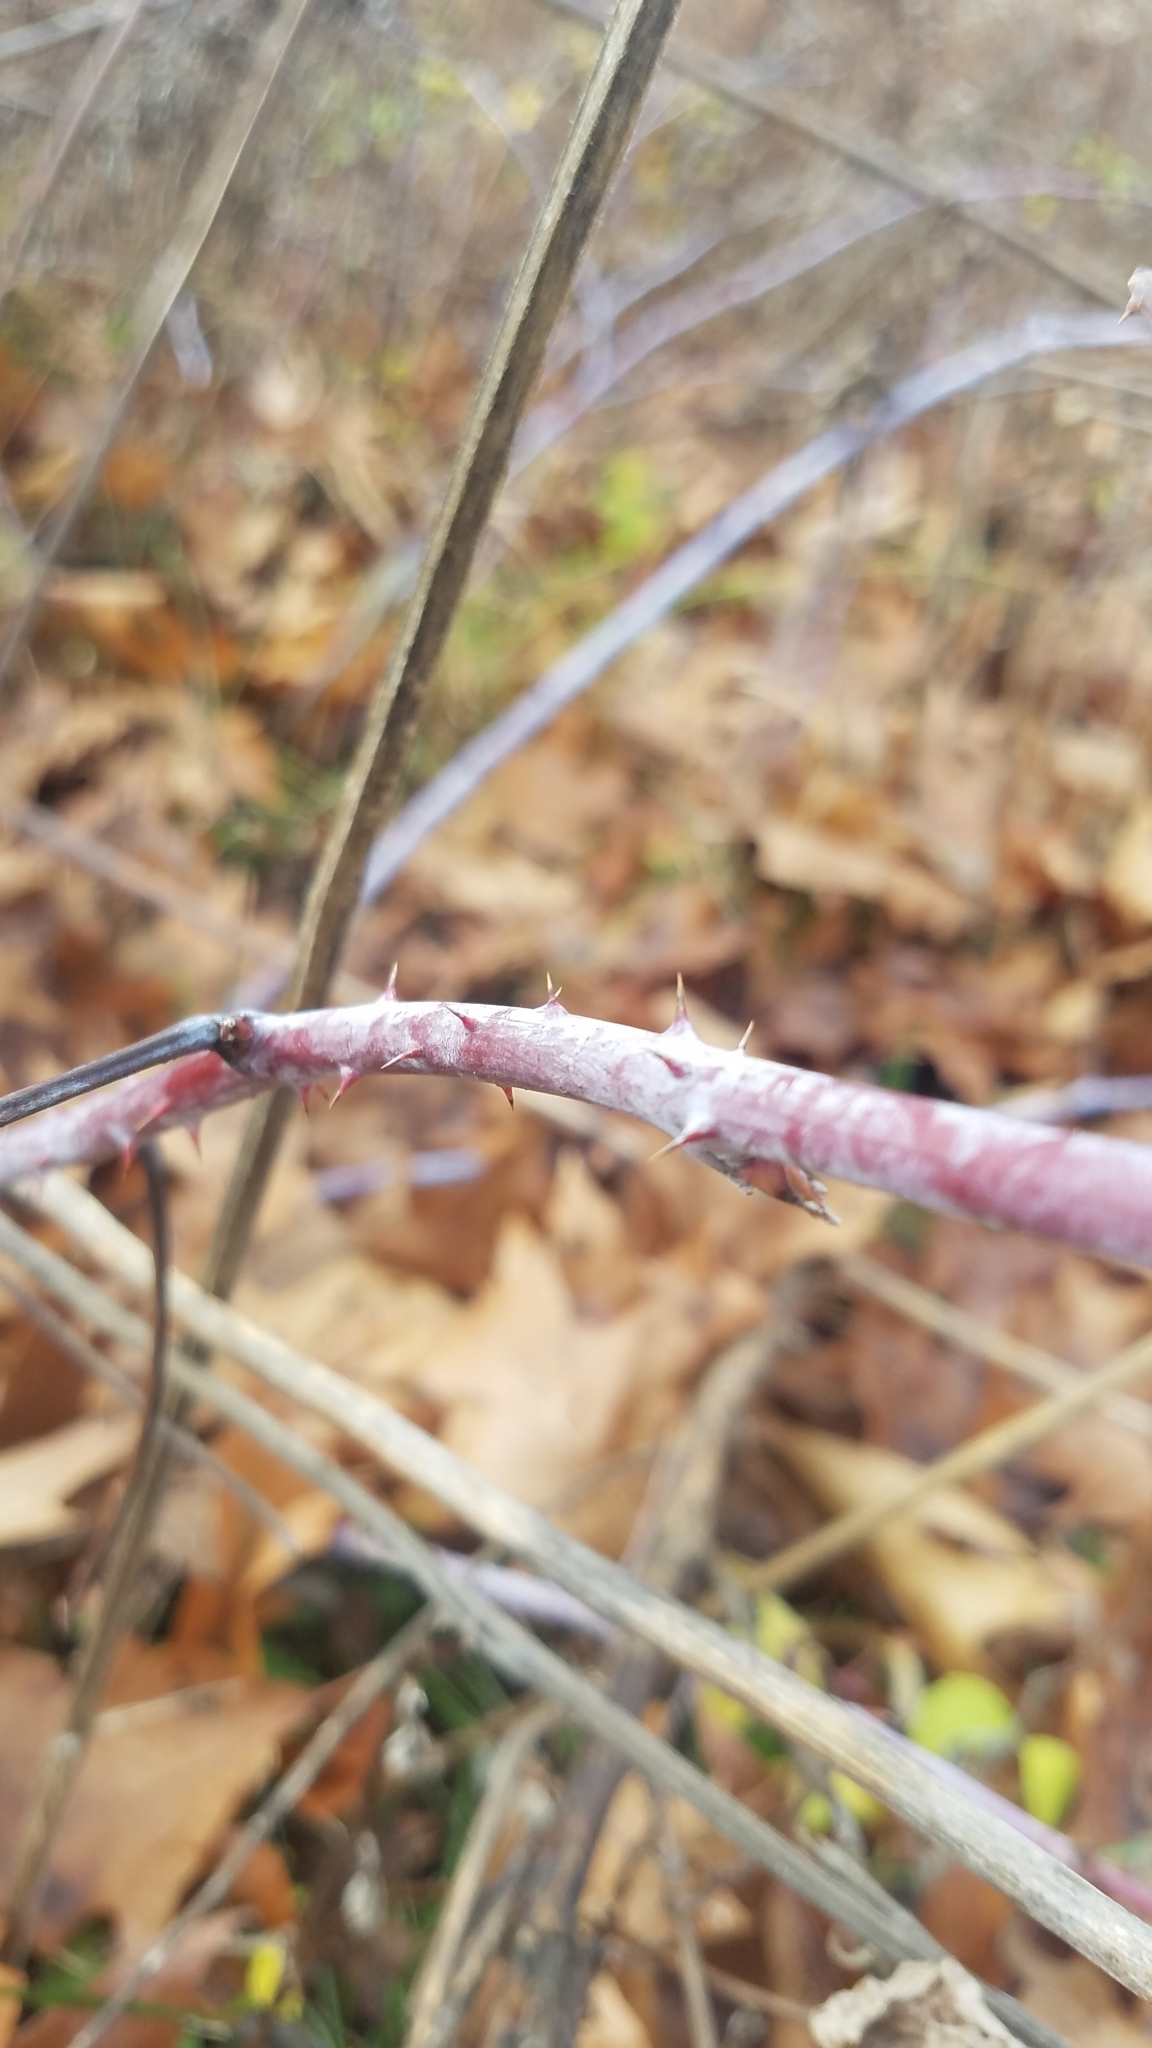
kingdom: Plantae
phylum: Tracheophyta
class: Magnoliopsida
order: Rosales
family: Rosaceae
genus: Rubus
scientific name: Rubus occidentalis
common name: Black raspberry
